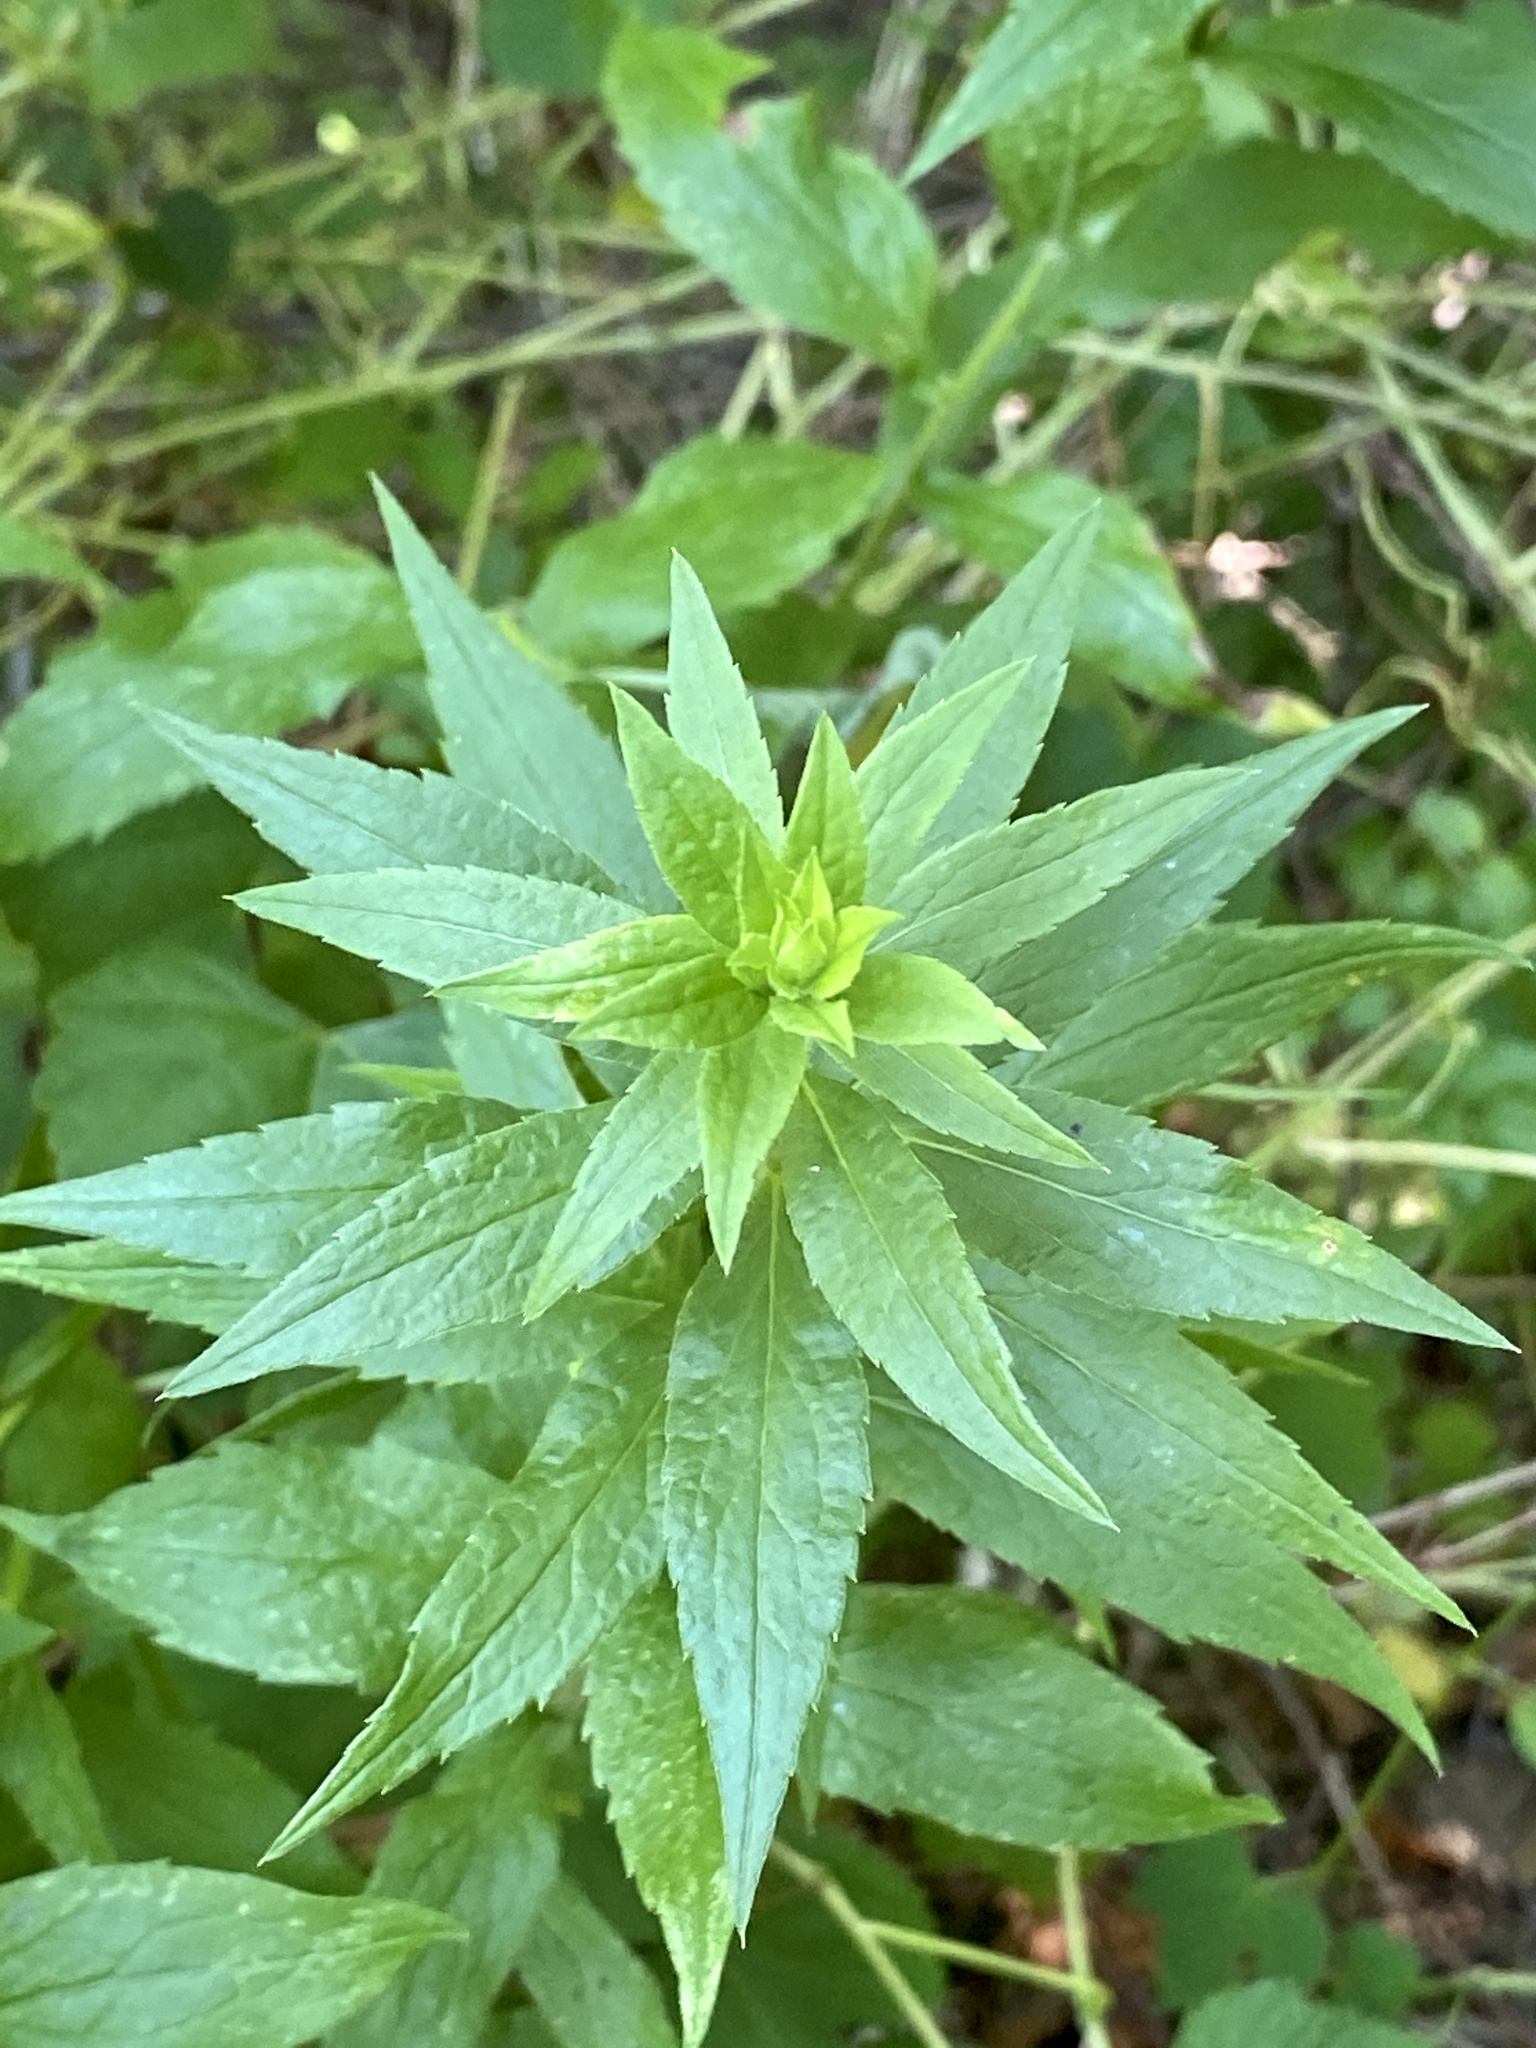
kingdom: Plantae
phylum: Tracheophyta
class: Magnoliopsida
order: Asterales
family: Asteraceae
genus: Solidago
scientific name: Solidago rugosa
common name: Rough-stemmed goldenrod
